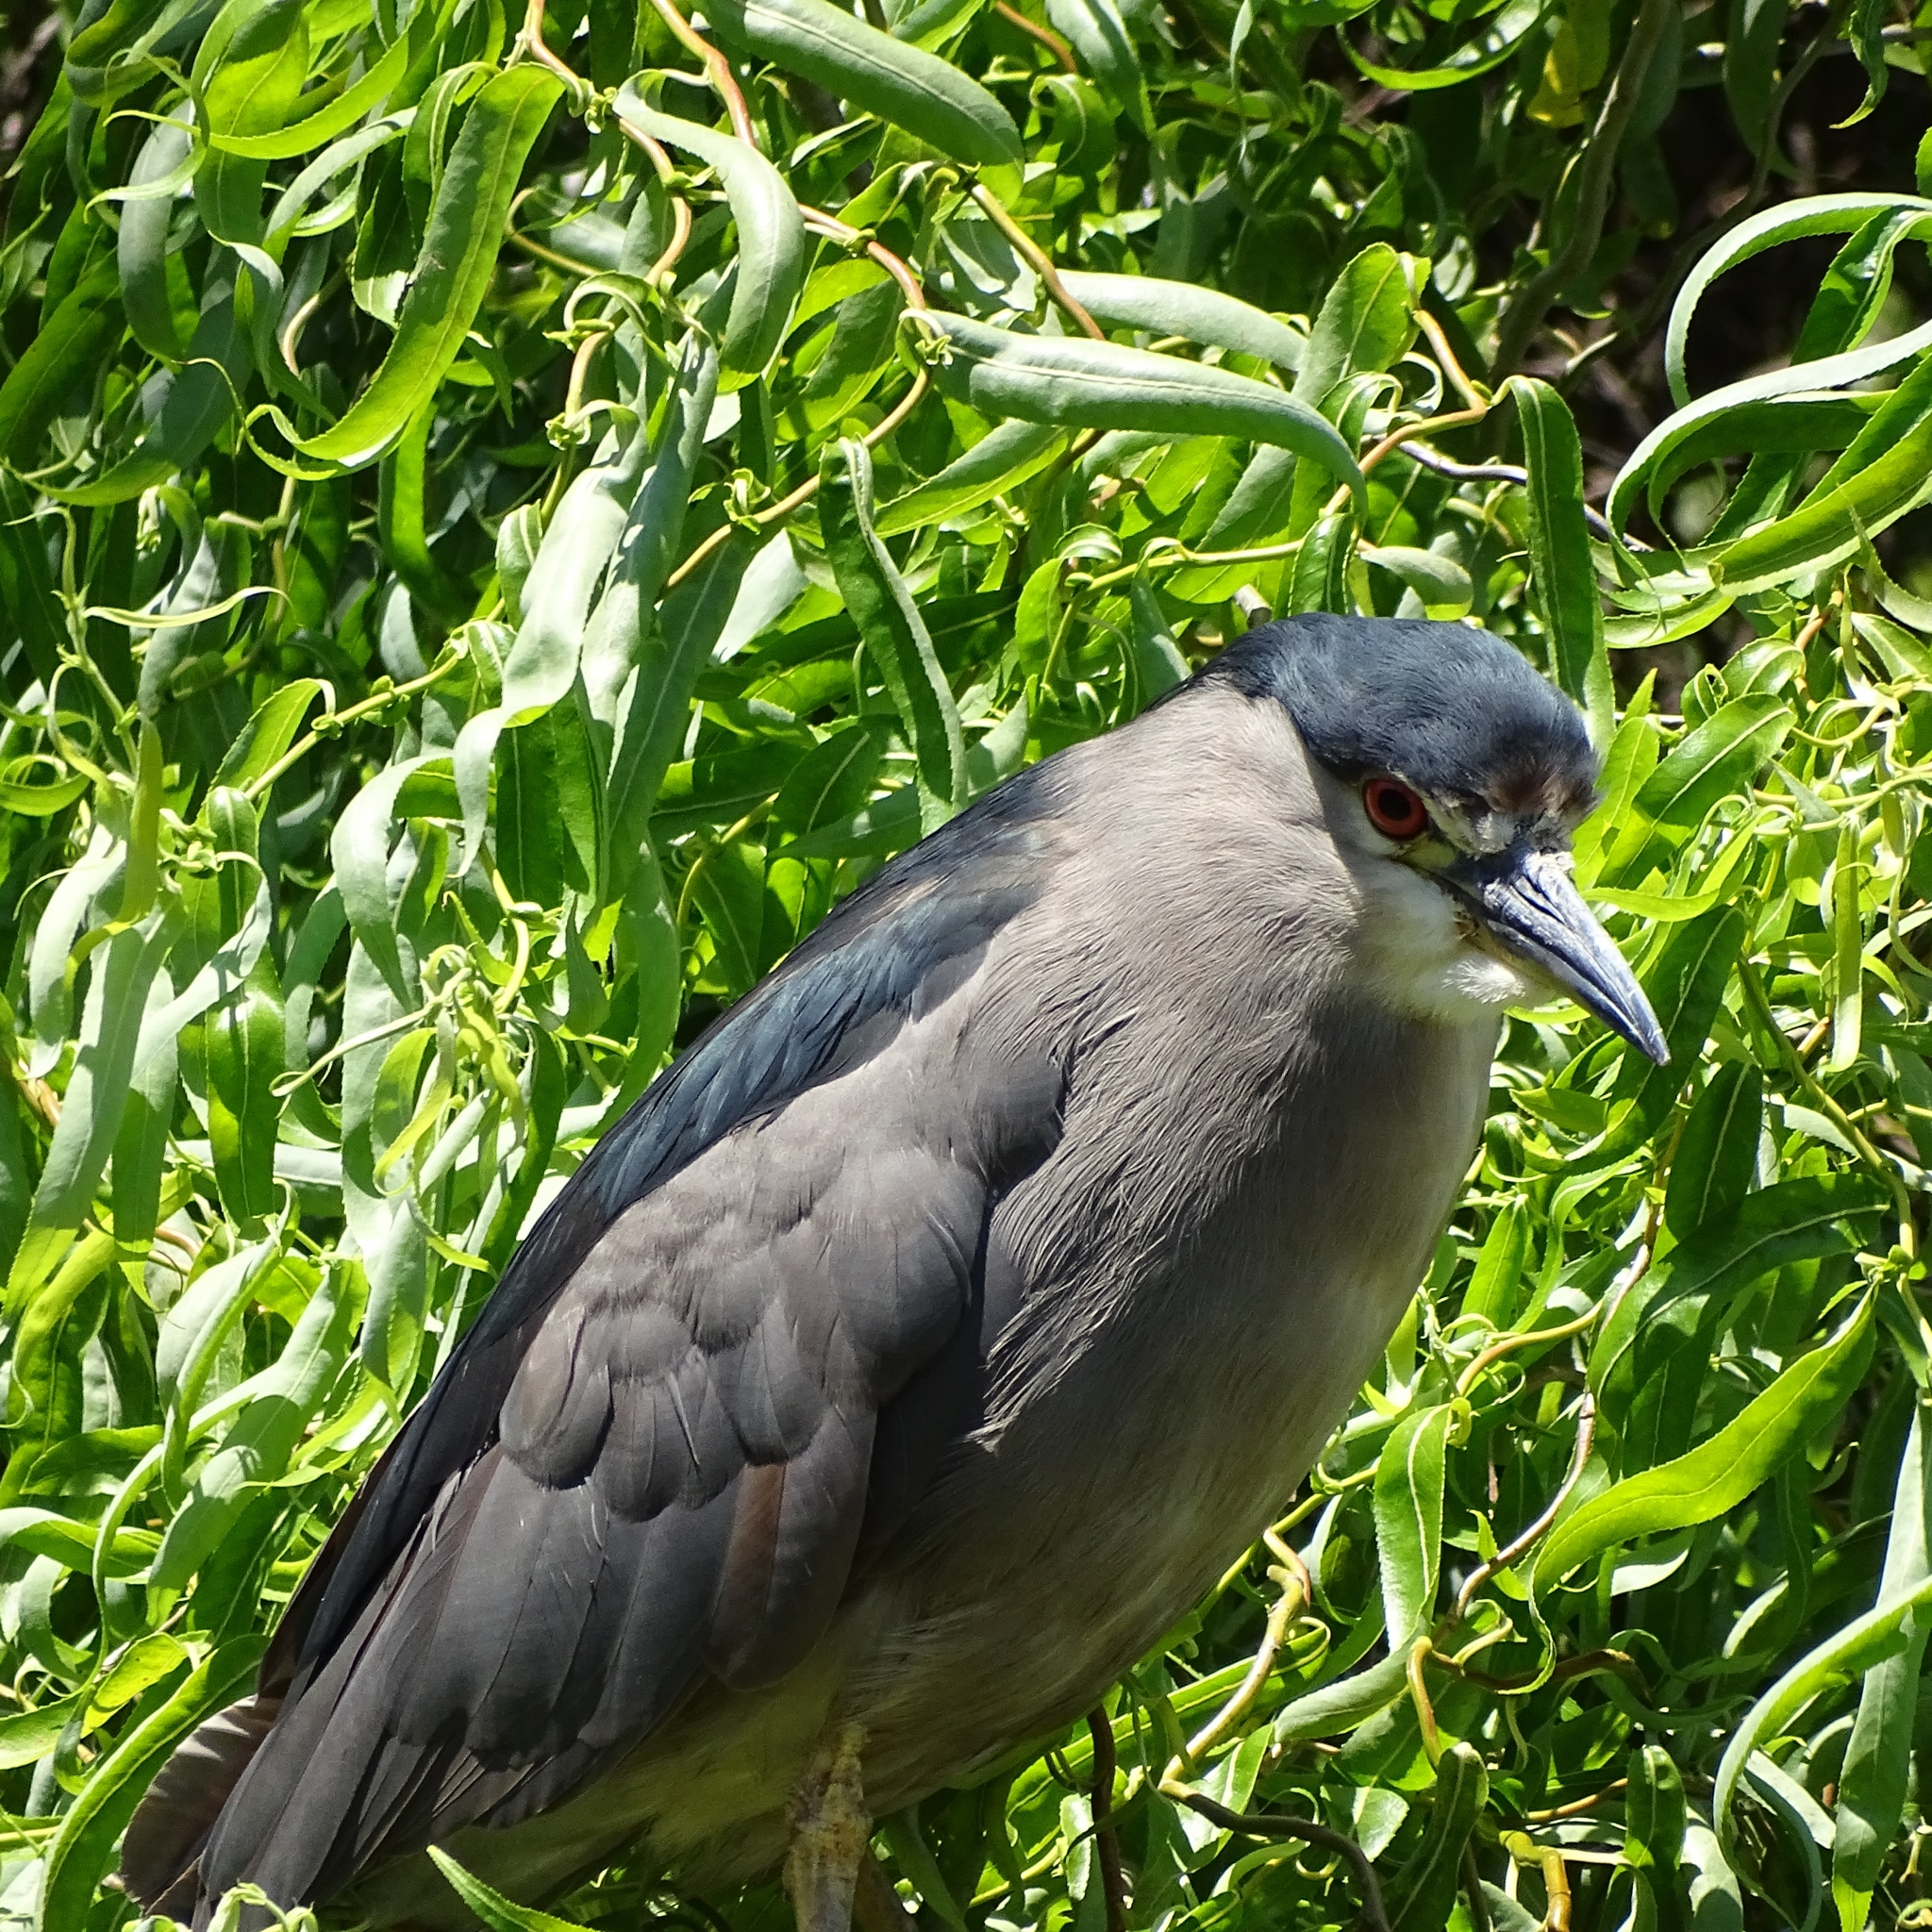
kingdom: Animalia
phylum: Chordata
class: Aves
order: Pelecaniformes
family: Ardeidae
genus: Nycticorax
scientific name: Nycticorax nycticorax
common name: Black-crowned night heron
